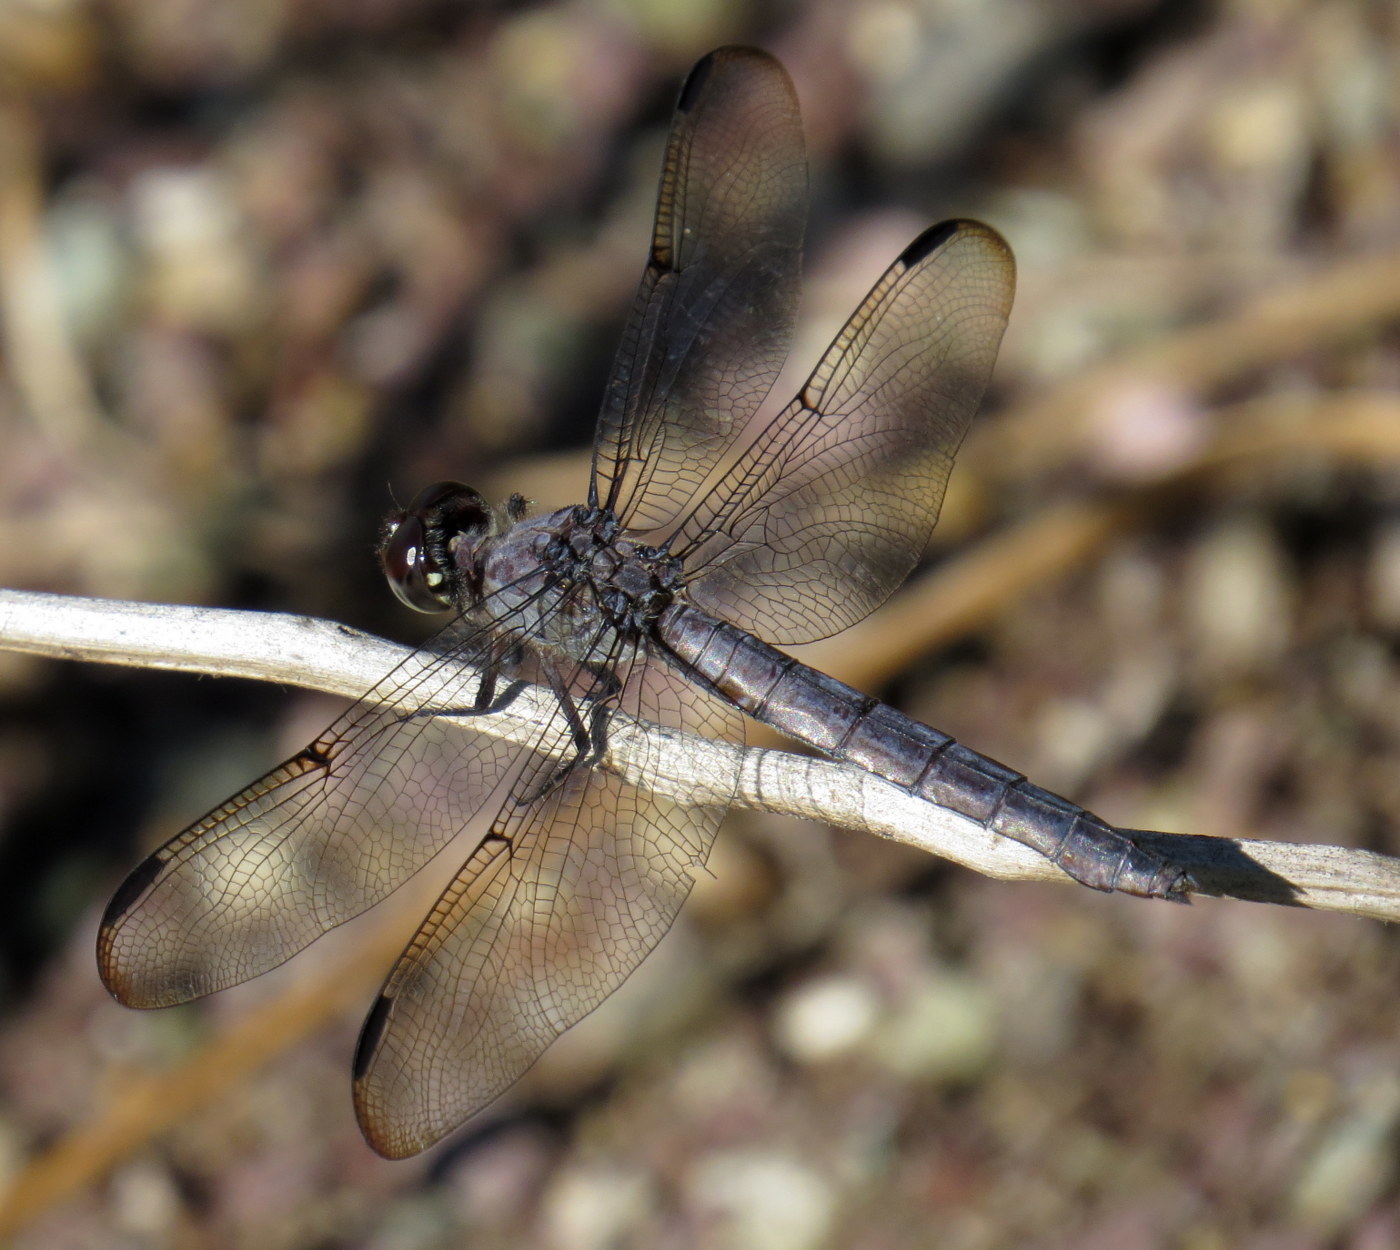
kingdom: Animalia
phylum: Arthropoda
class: Insecta
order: Odonata
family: Libellulidae
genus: Libellula
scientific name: Libellula incesta
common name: Slaty skimmer
